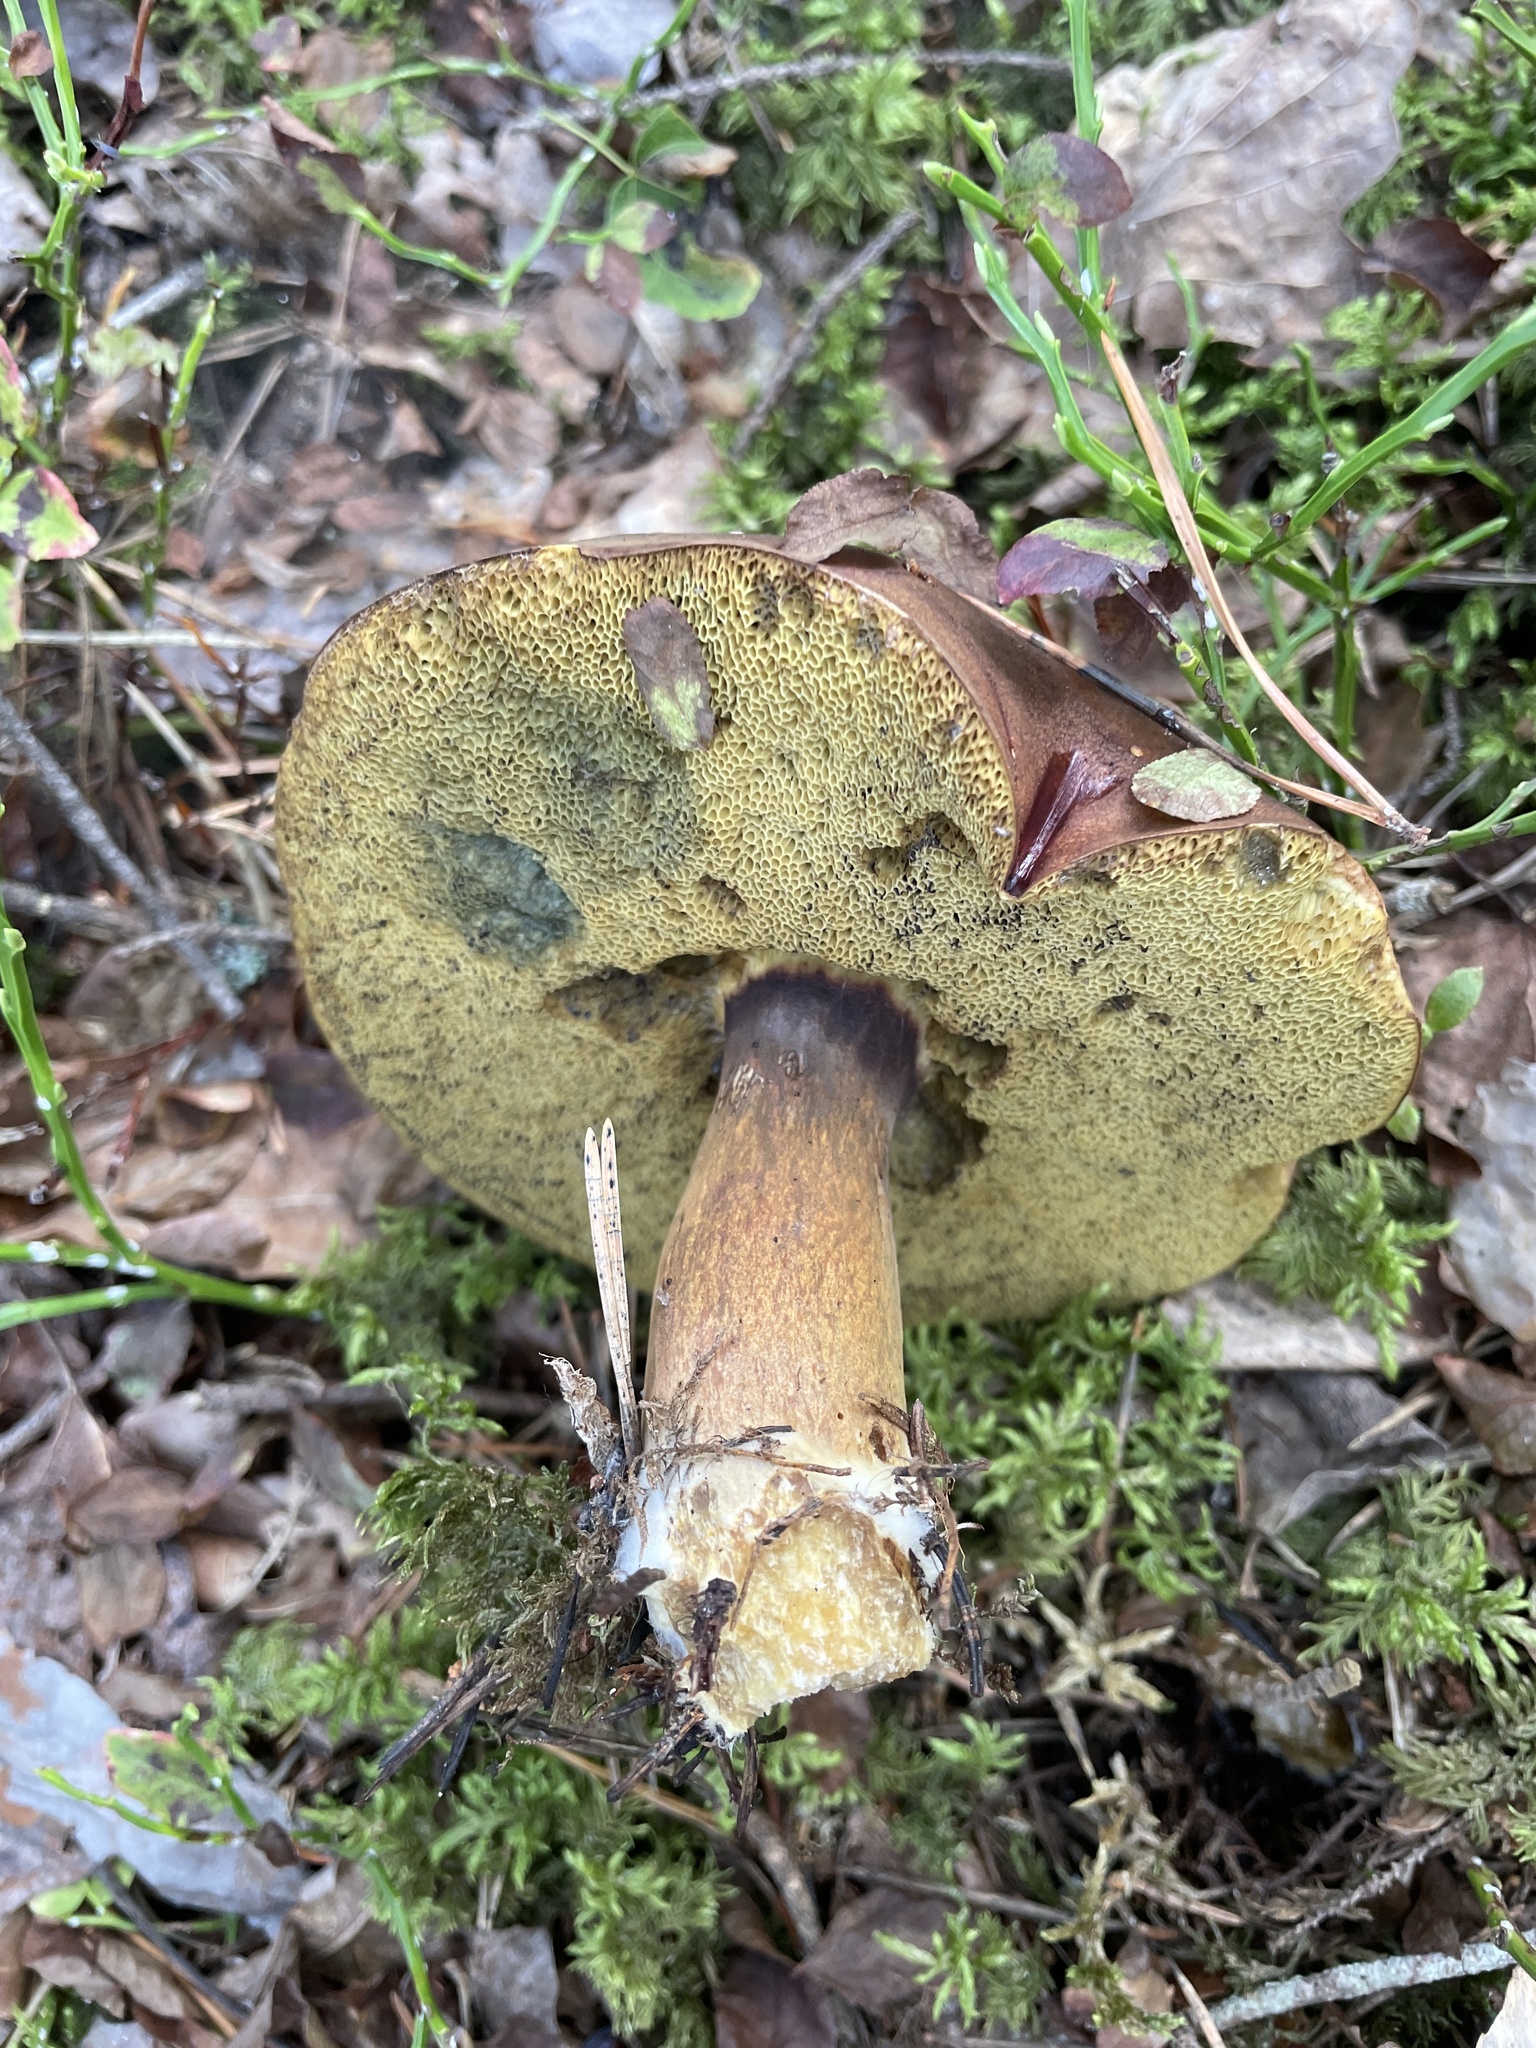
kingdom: Fungi
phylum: Basidiomycota
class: Agaricomycetes
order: Boletales
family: Boletaceae
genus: Imleria
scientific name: Imleria badia
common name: Bay bolete
